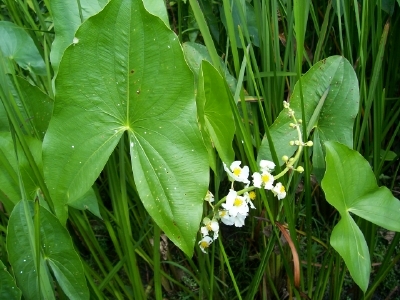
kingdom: Plantae
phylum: Tracheophyta
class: Liliopsida
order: Alismatales
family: Alismataceae
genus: Sagittaria
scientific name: Sagittaria latifolia
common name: Duck-potato
